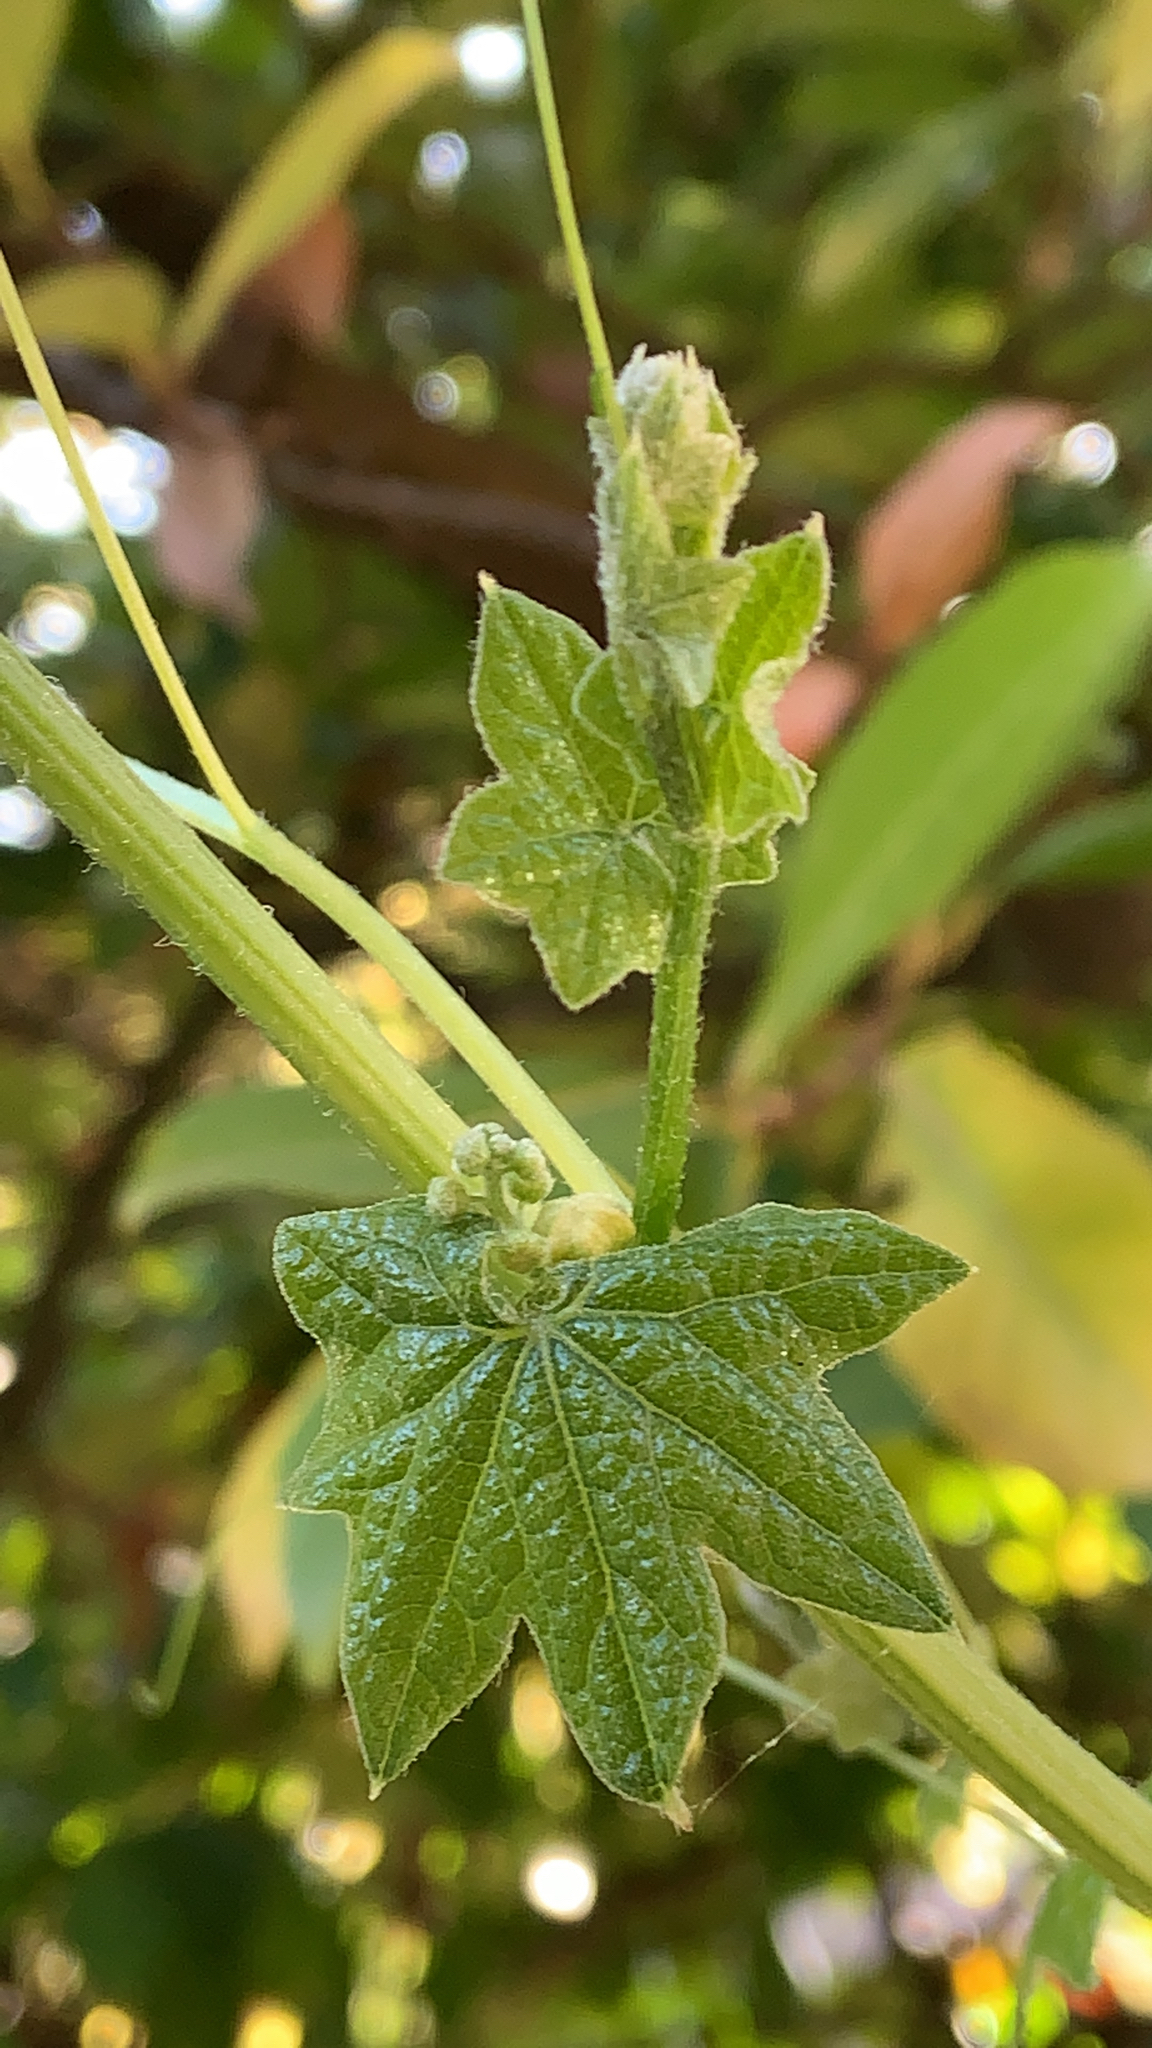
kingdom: Plantae
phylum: Tracheophyta
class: Magnoliopsida
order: Cucurbitales
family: Cucurbitaceae
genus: Marah
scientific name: Marah fabacea
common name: California manroot
